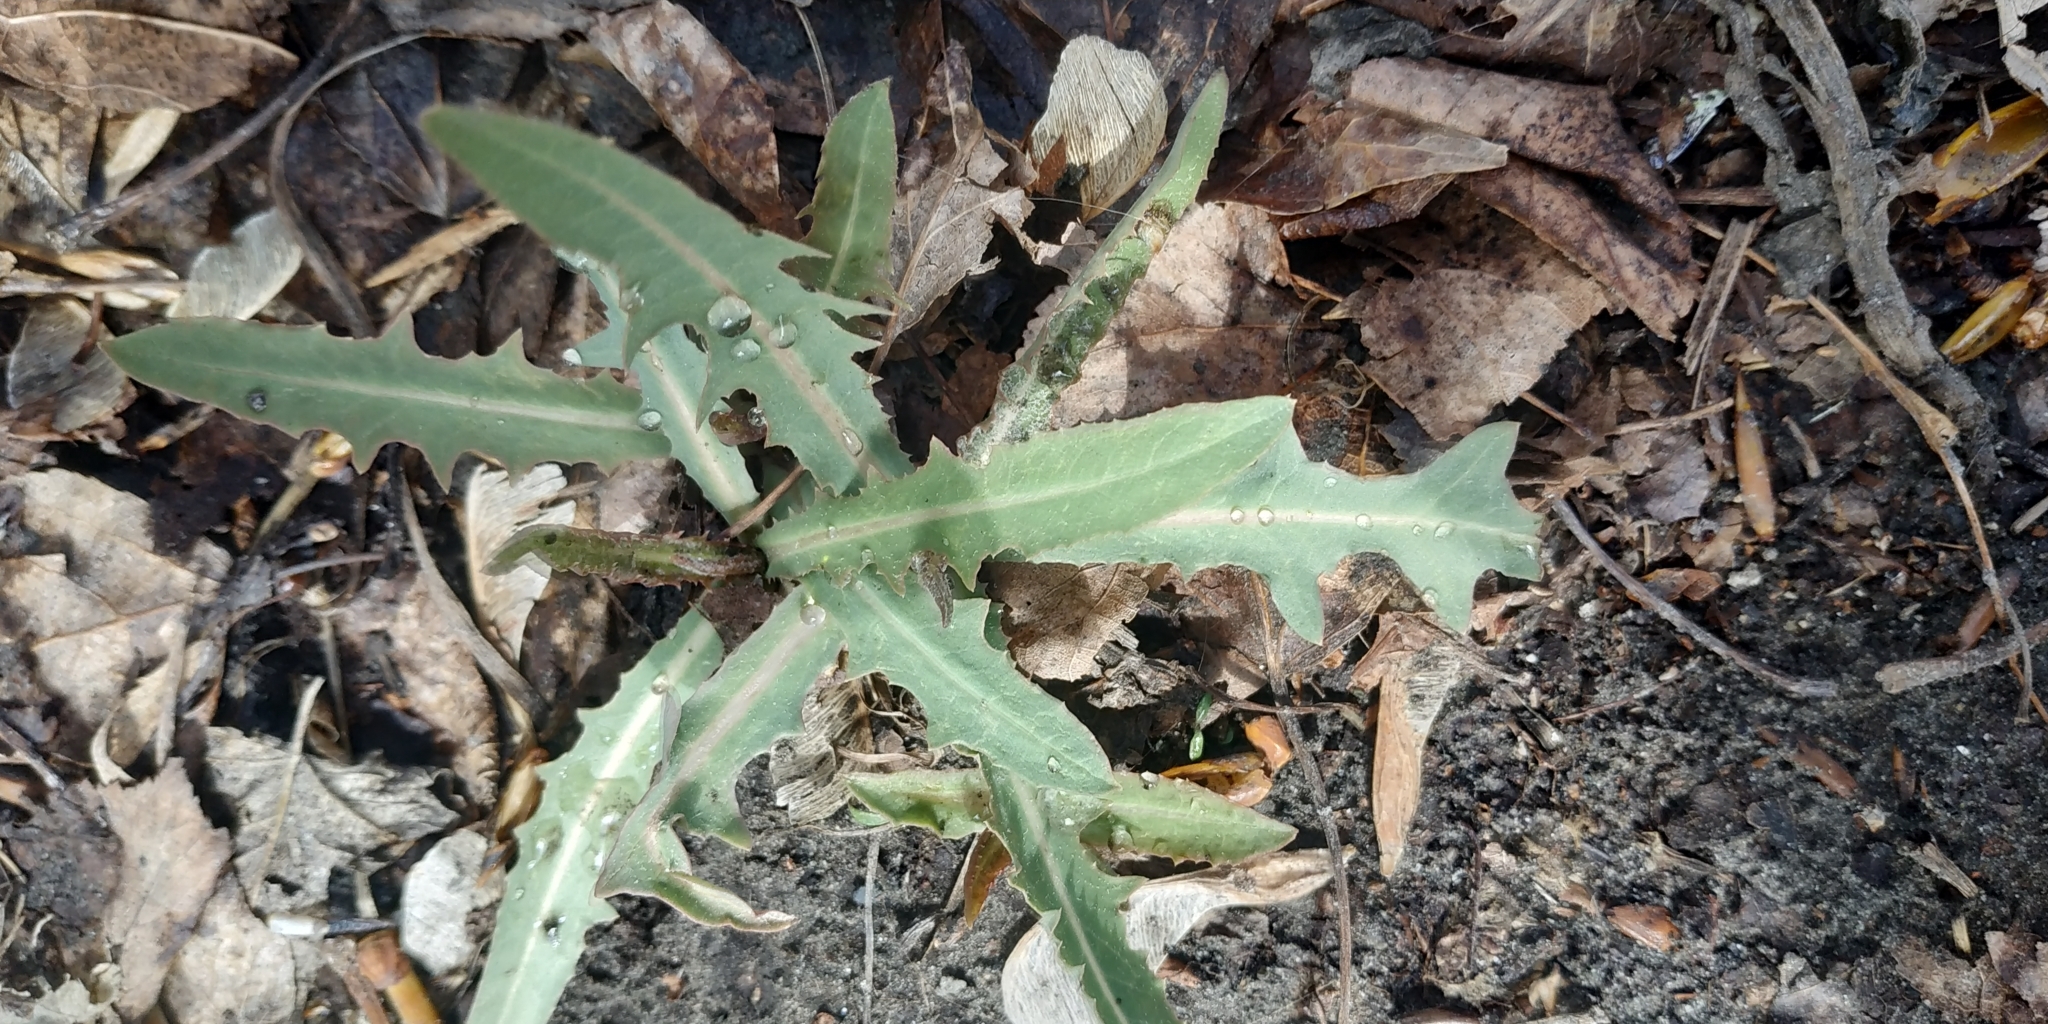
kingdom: Plantae
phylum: Tracheophyta
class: Magnoliopsida
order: Asterales
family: Asteraceae
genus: Lactuca
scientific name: Lactuca tatarica
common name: Blue lettuce
